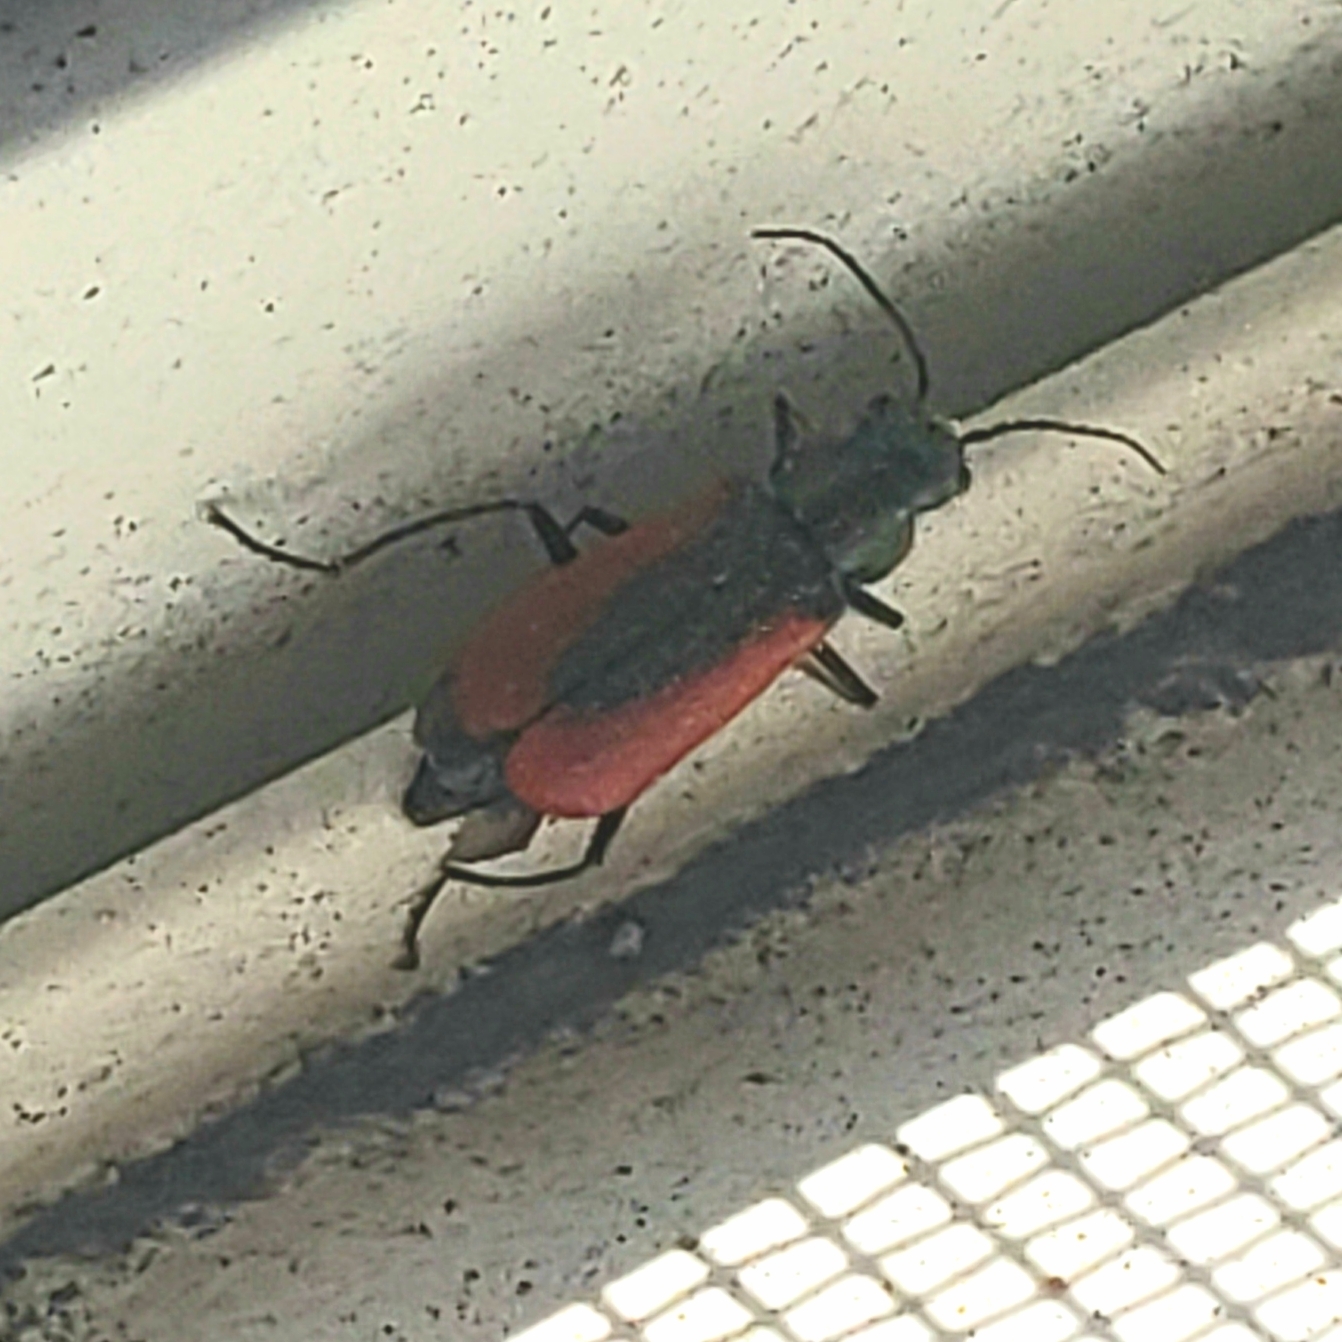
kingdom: Animalia
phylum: Arthropoda
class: Insecta
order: Coleoptera
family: Melyridae
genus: Malachius
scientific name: Malachius aeneus
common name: Scarlet malachite beetle
